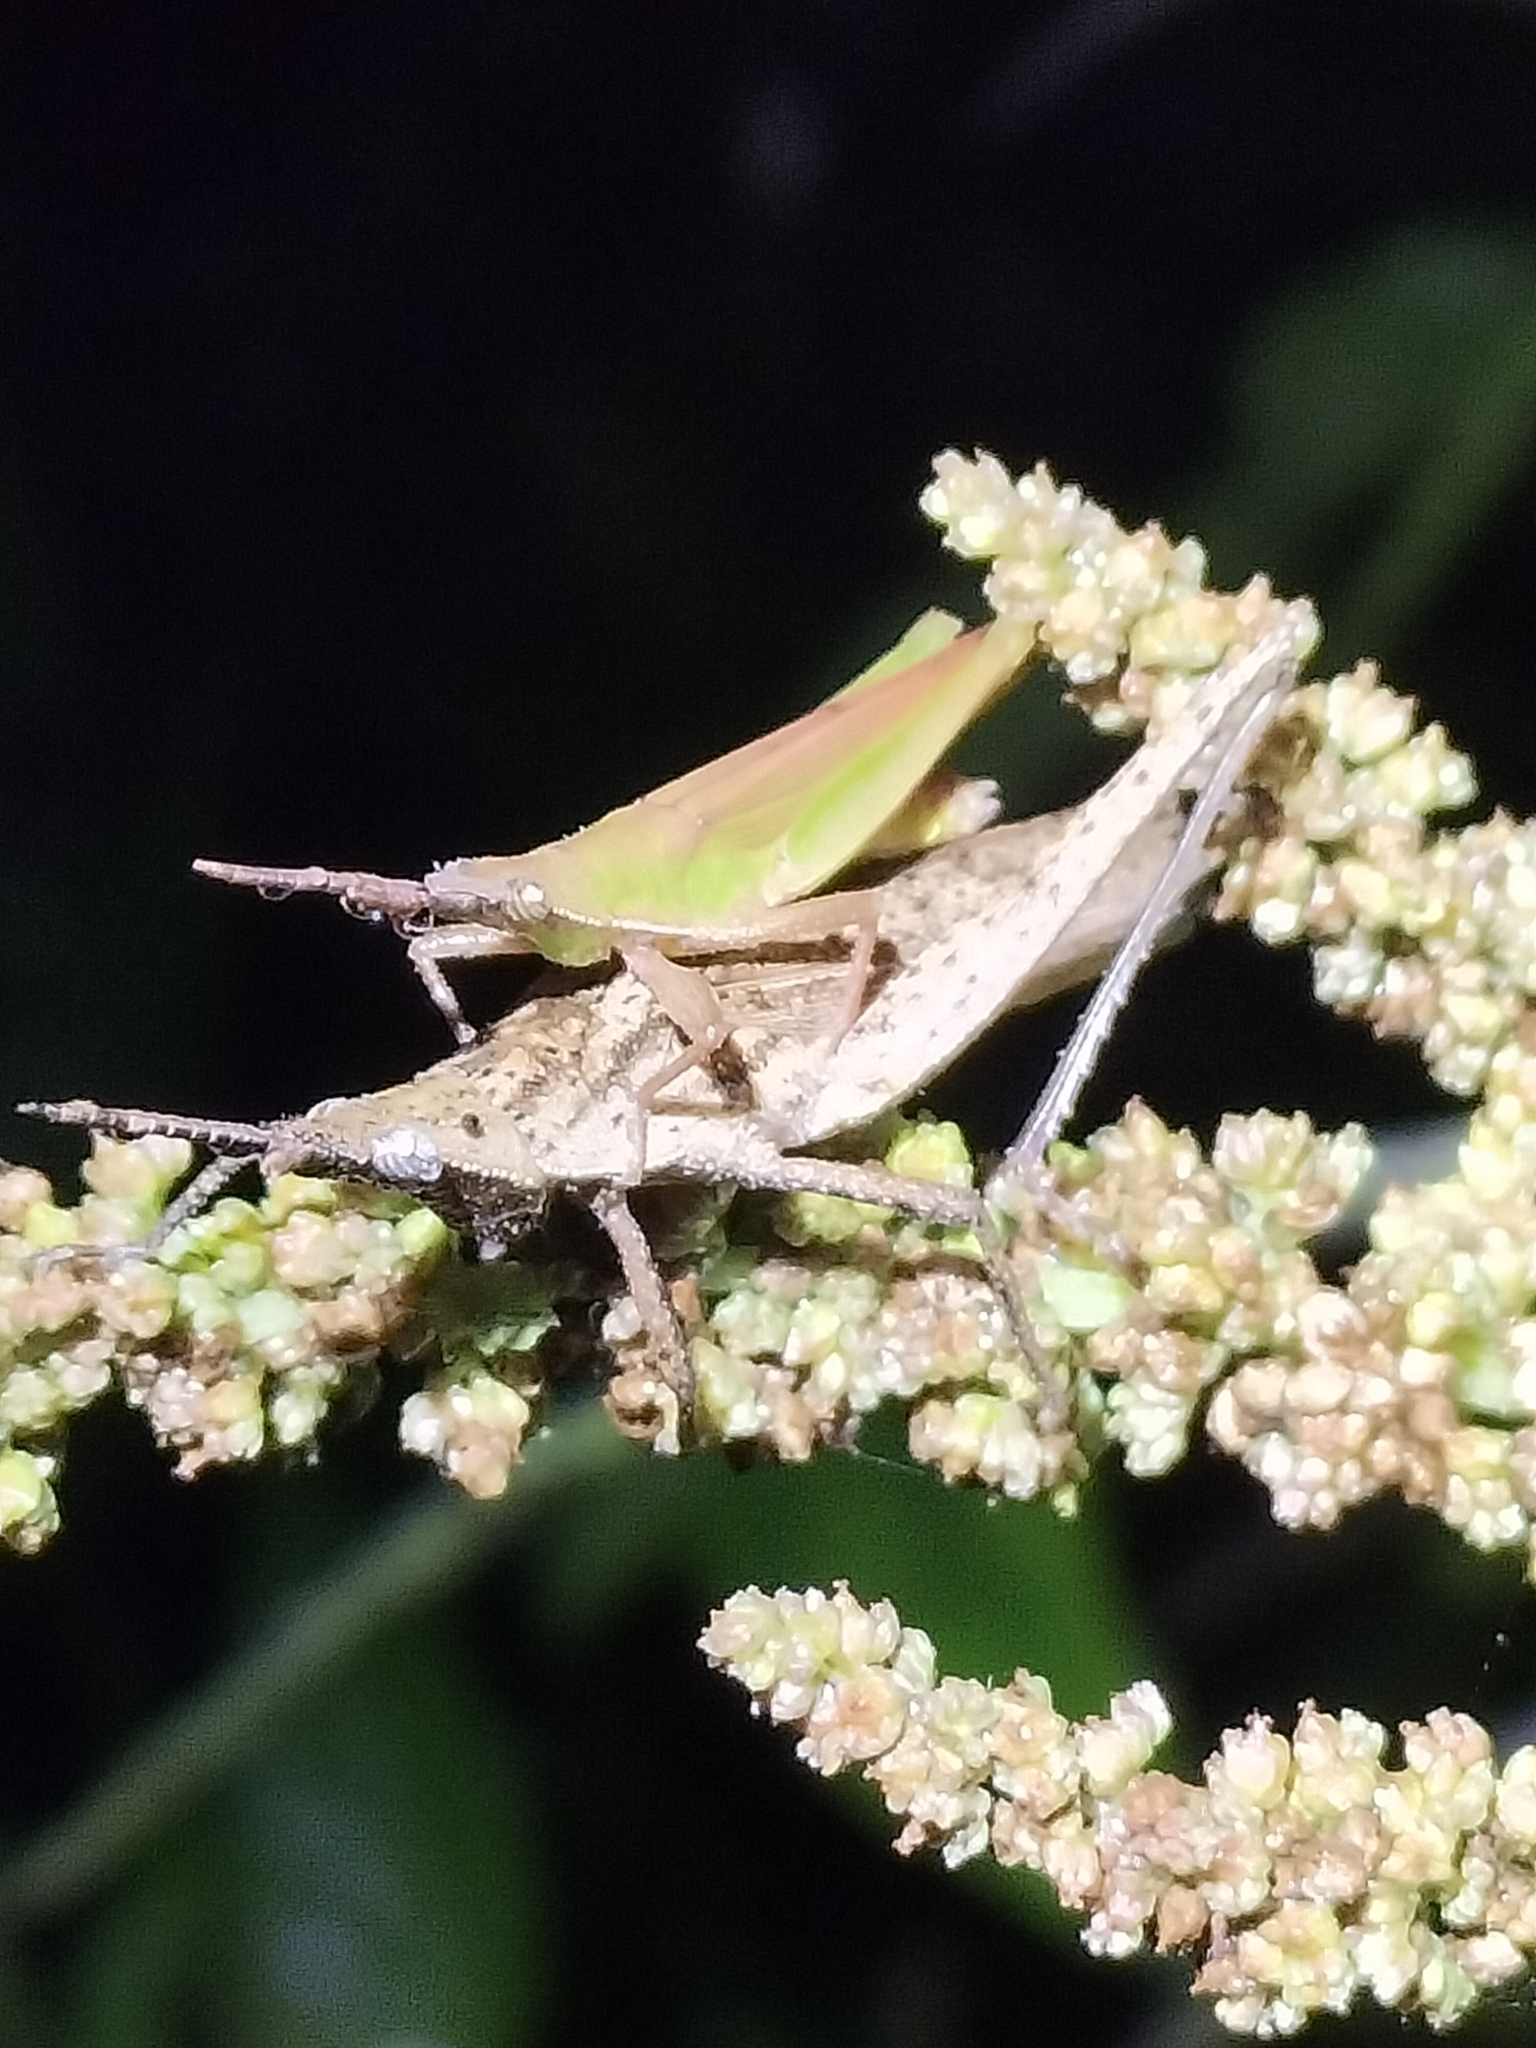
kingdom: Animalia
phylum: Arthropoda
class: Insecta
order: Orthoptera
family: Pyrgomorphidae
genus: Atractomorpha
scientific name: Atractomorpha similis
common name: Northern grass pyrgomorph
